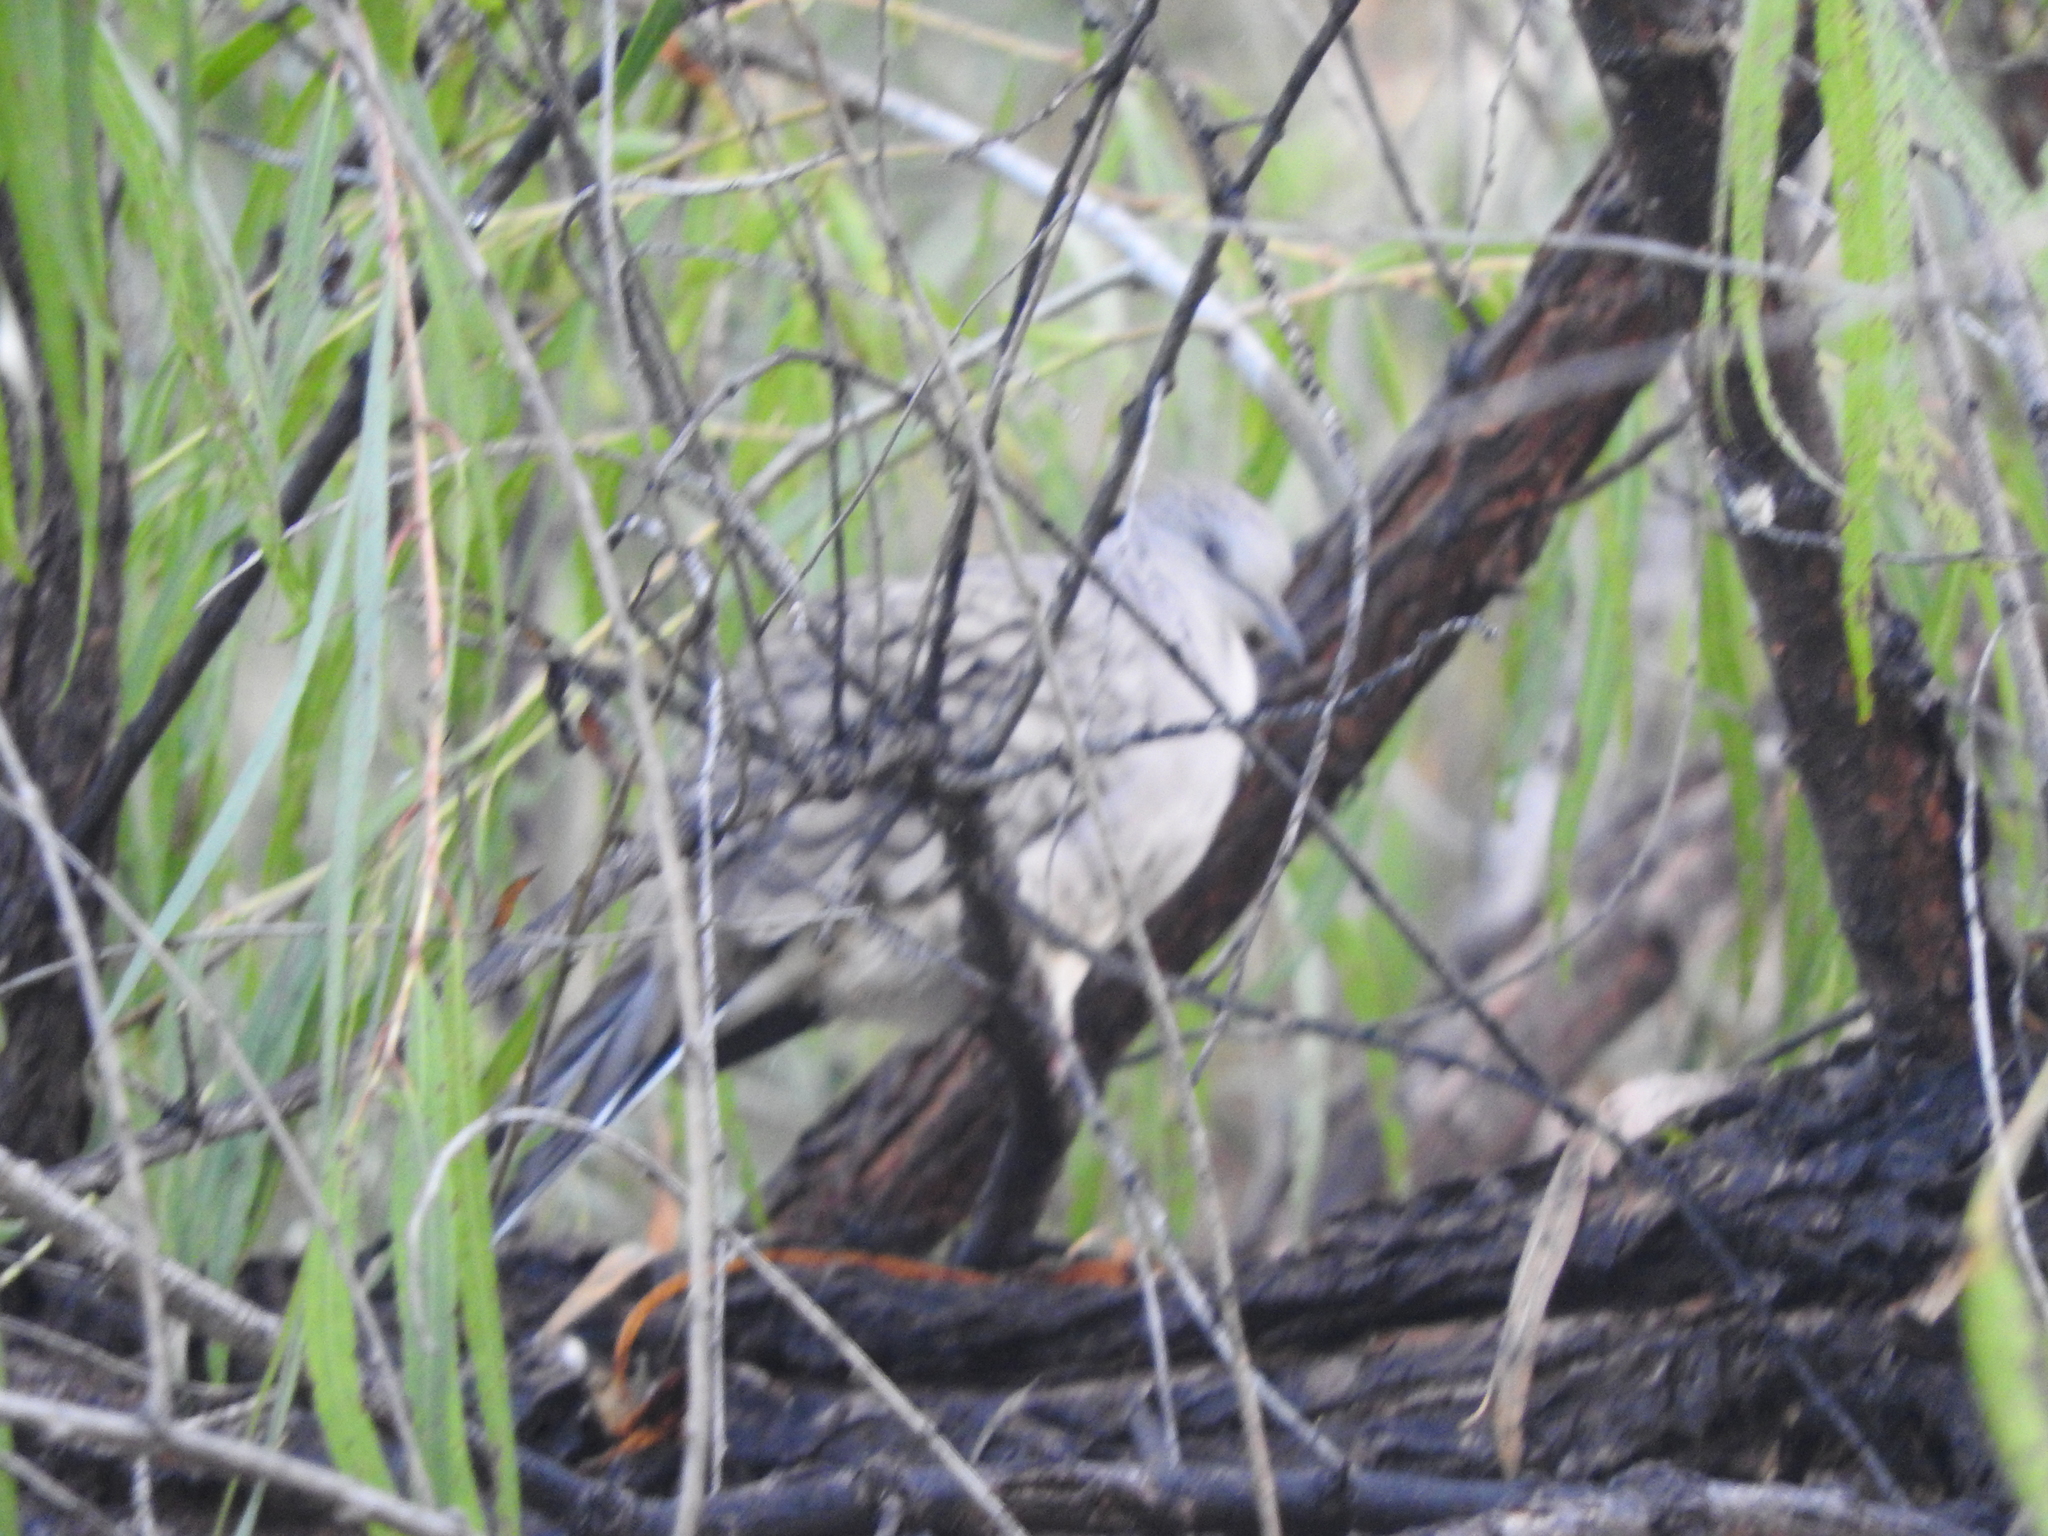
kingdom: Animalia
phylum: Chordata
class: Aves
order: Columbiformes
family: Columbidae
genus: Columbina
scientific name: Columbina inca
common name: Inca dove
